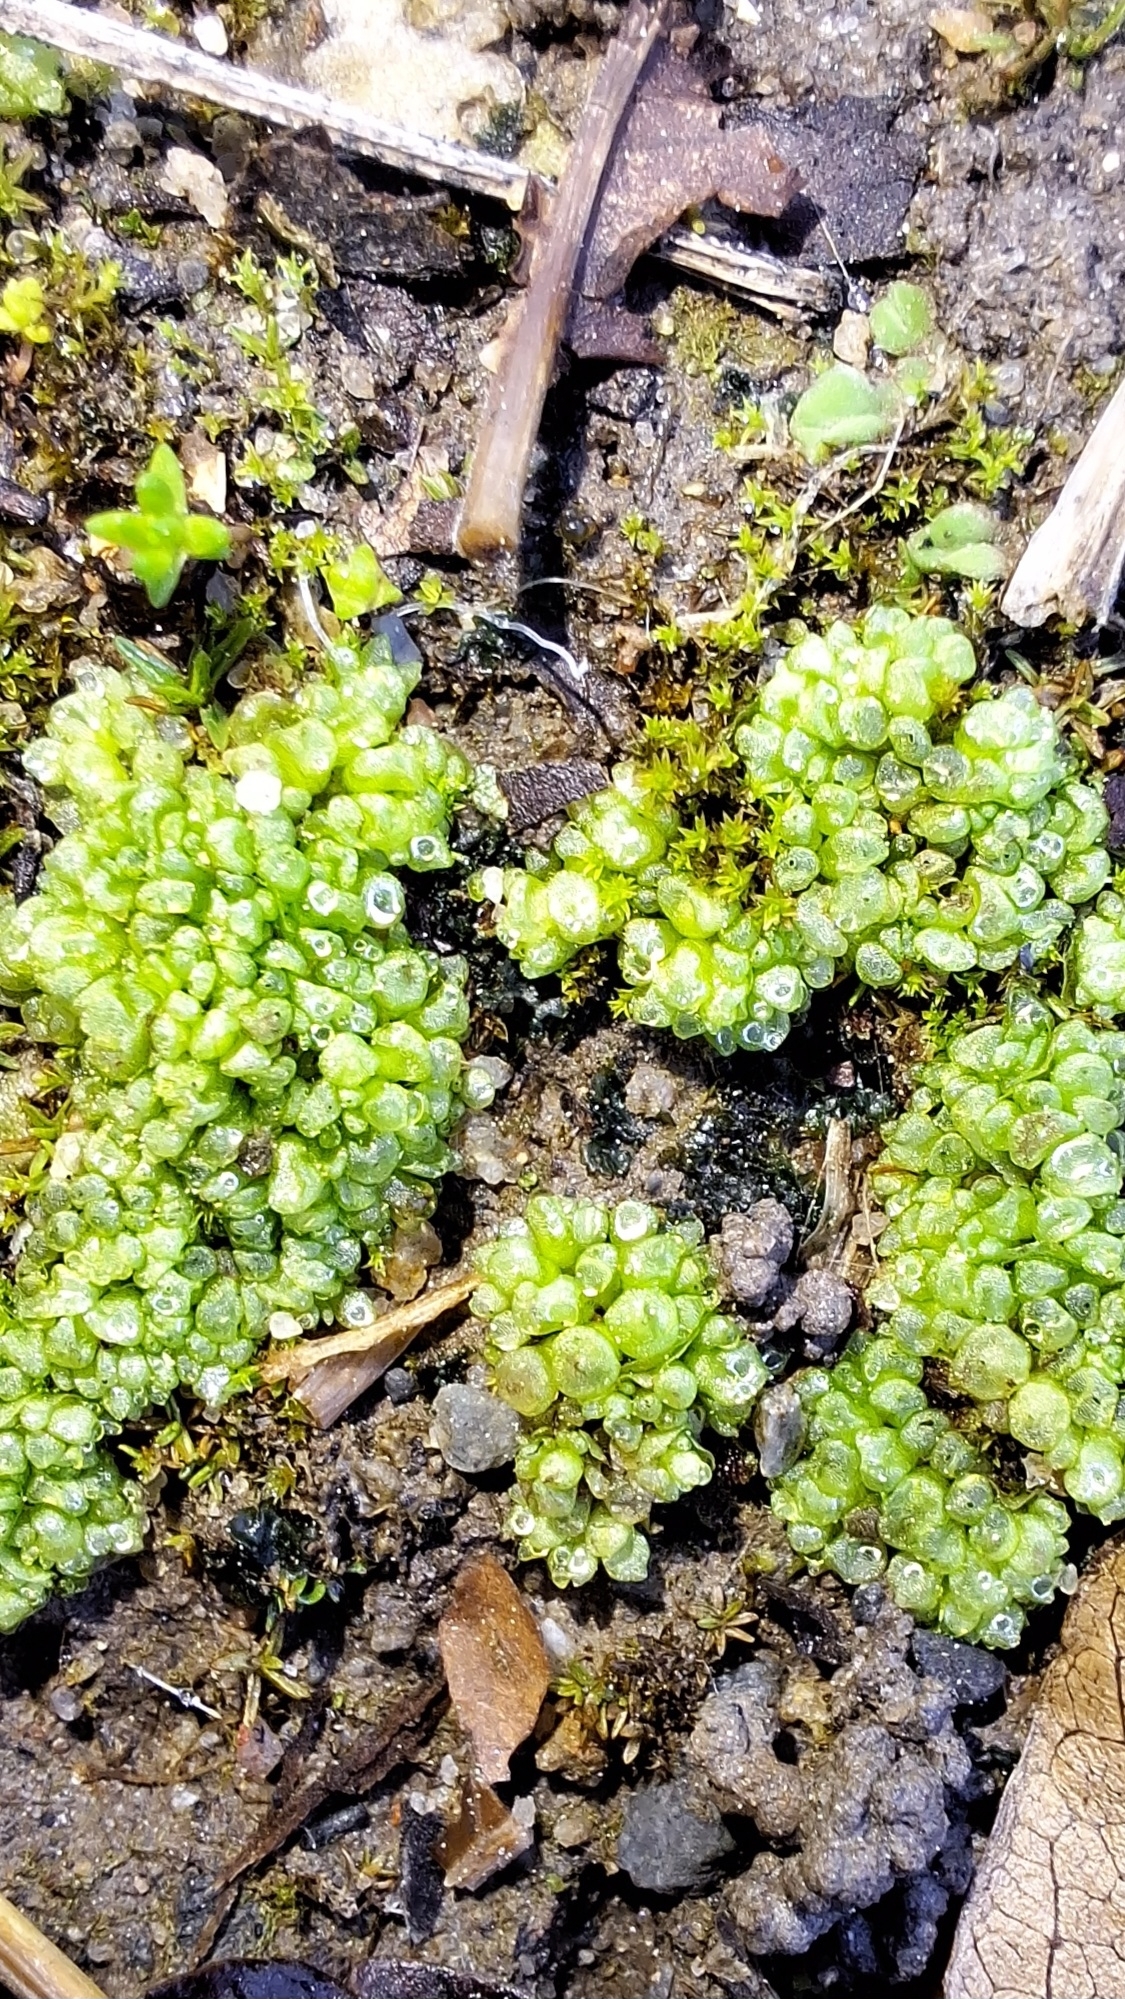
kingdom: Plantae
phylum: Marchantiophyta
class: Marchantiopsida
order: Sphaerocarpales
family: Sphaerocarpaceae
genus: Sphaerocarpos
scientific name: Sphaerocarpos texanus
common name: Texas balloonwort
